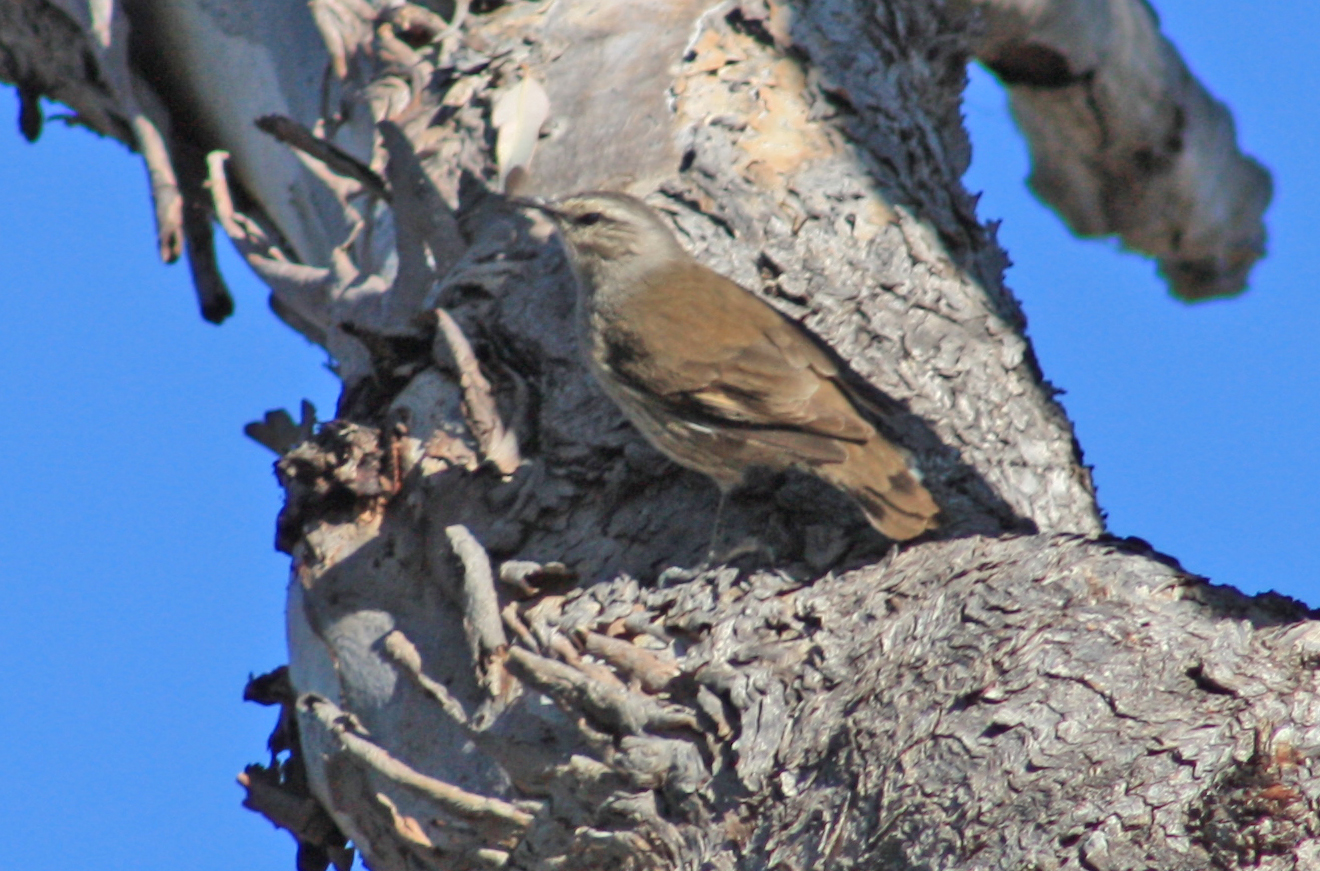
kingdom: Animalia
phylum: Chordata
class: Aves
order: Passeriformes
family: Climacteridae
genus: Climacteris
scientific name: Climacteris picumnus
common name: Brown treecreeper
